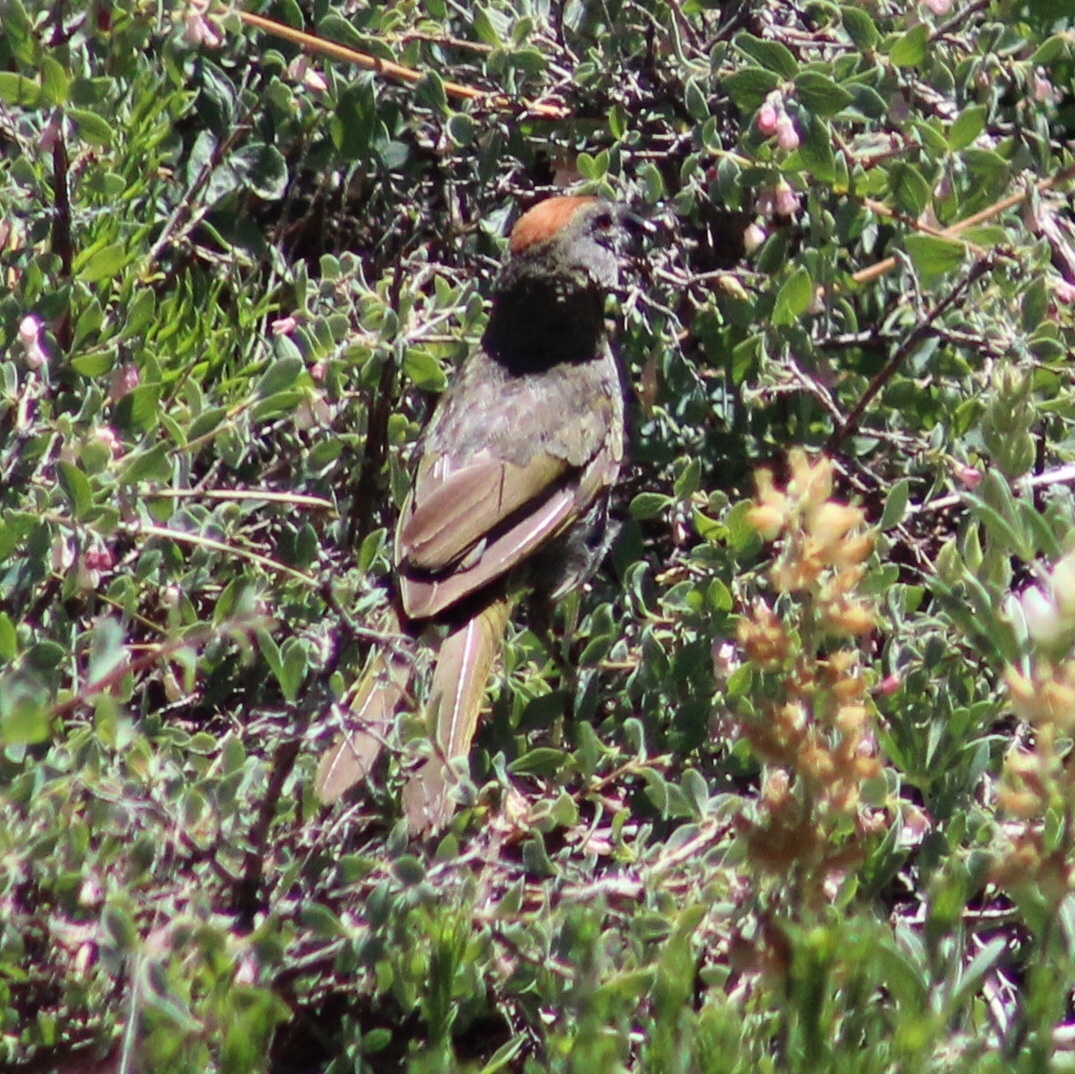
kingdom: Animalia
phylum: Chordata
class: Aves
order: Passeriformes
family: Passerellidae
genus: Pipilo
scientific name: Pipilo chlorurus
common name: Green-tailed towhee
